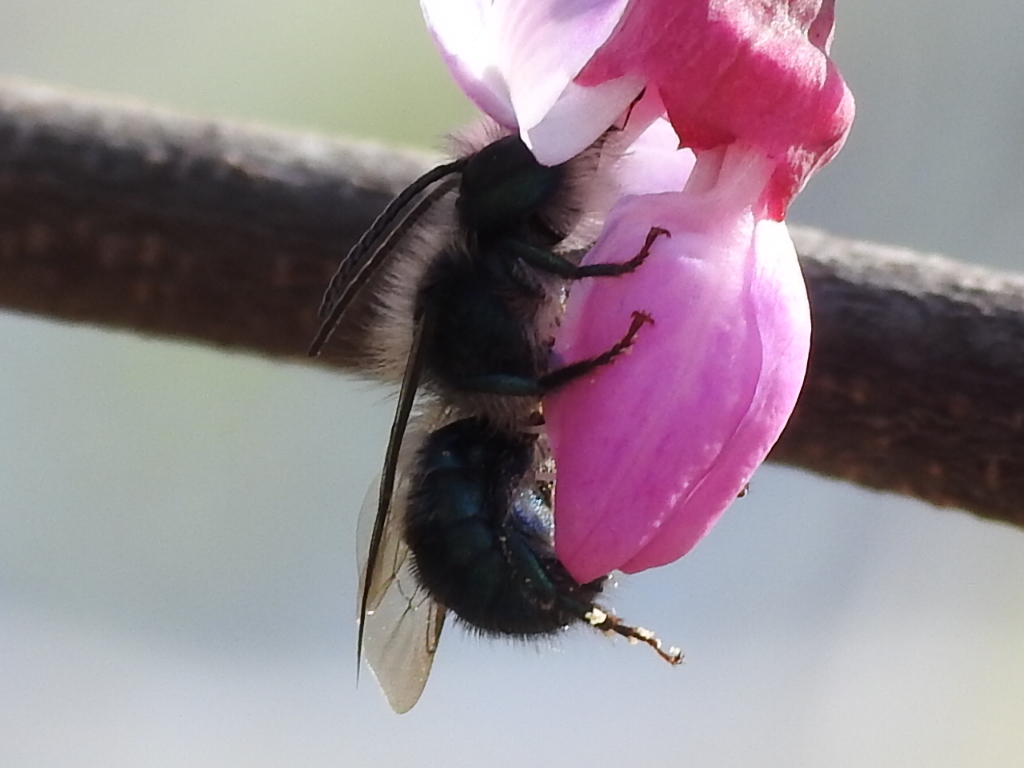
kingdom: Animalia
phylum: Arthropoda
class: Insecta
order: Hymenoptera
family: Megachilidae
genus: Osmia
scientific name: Osmia ribifloris
